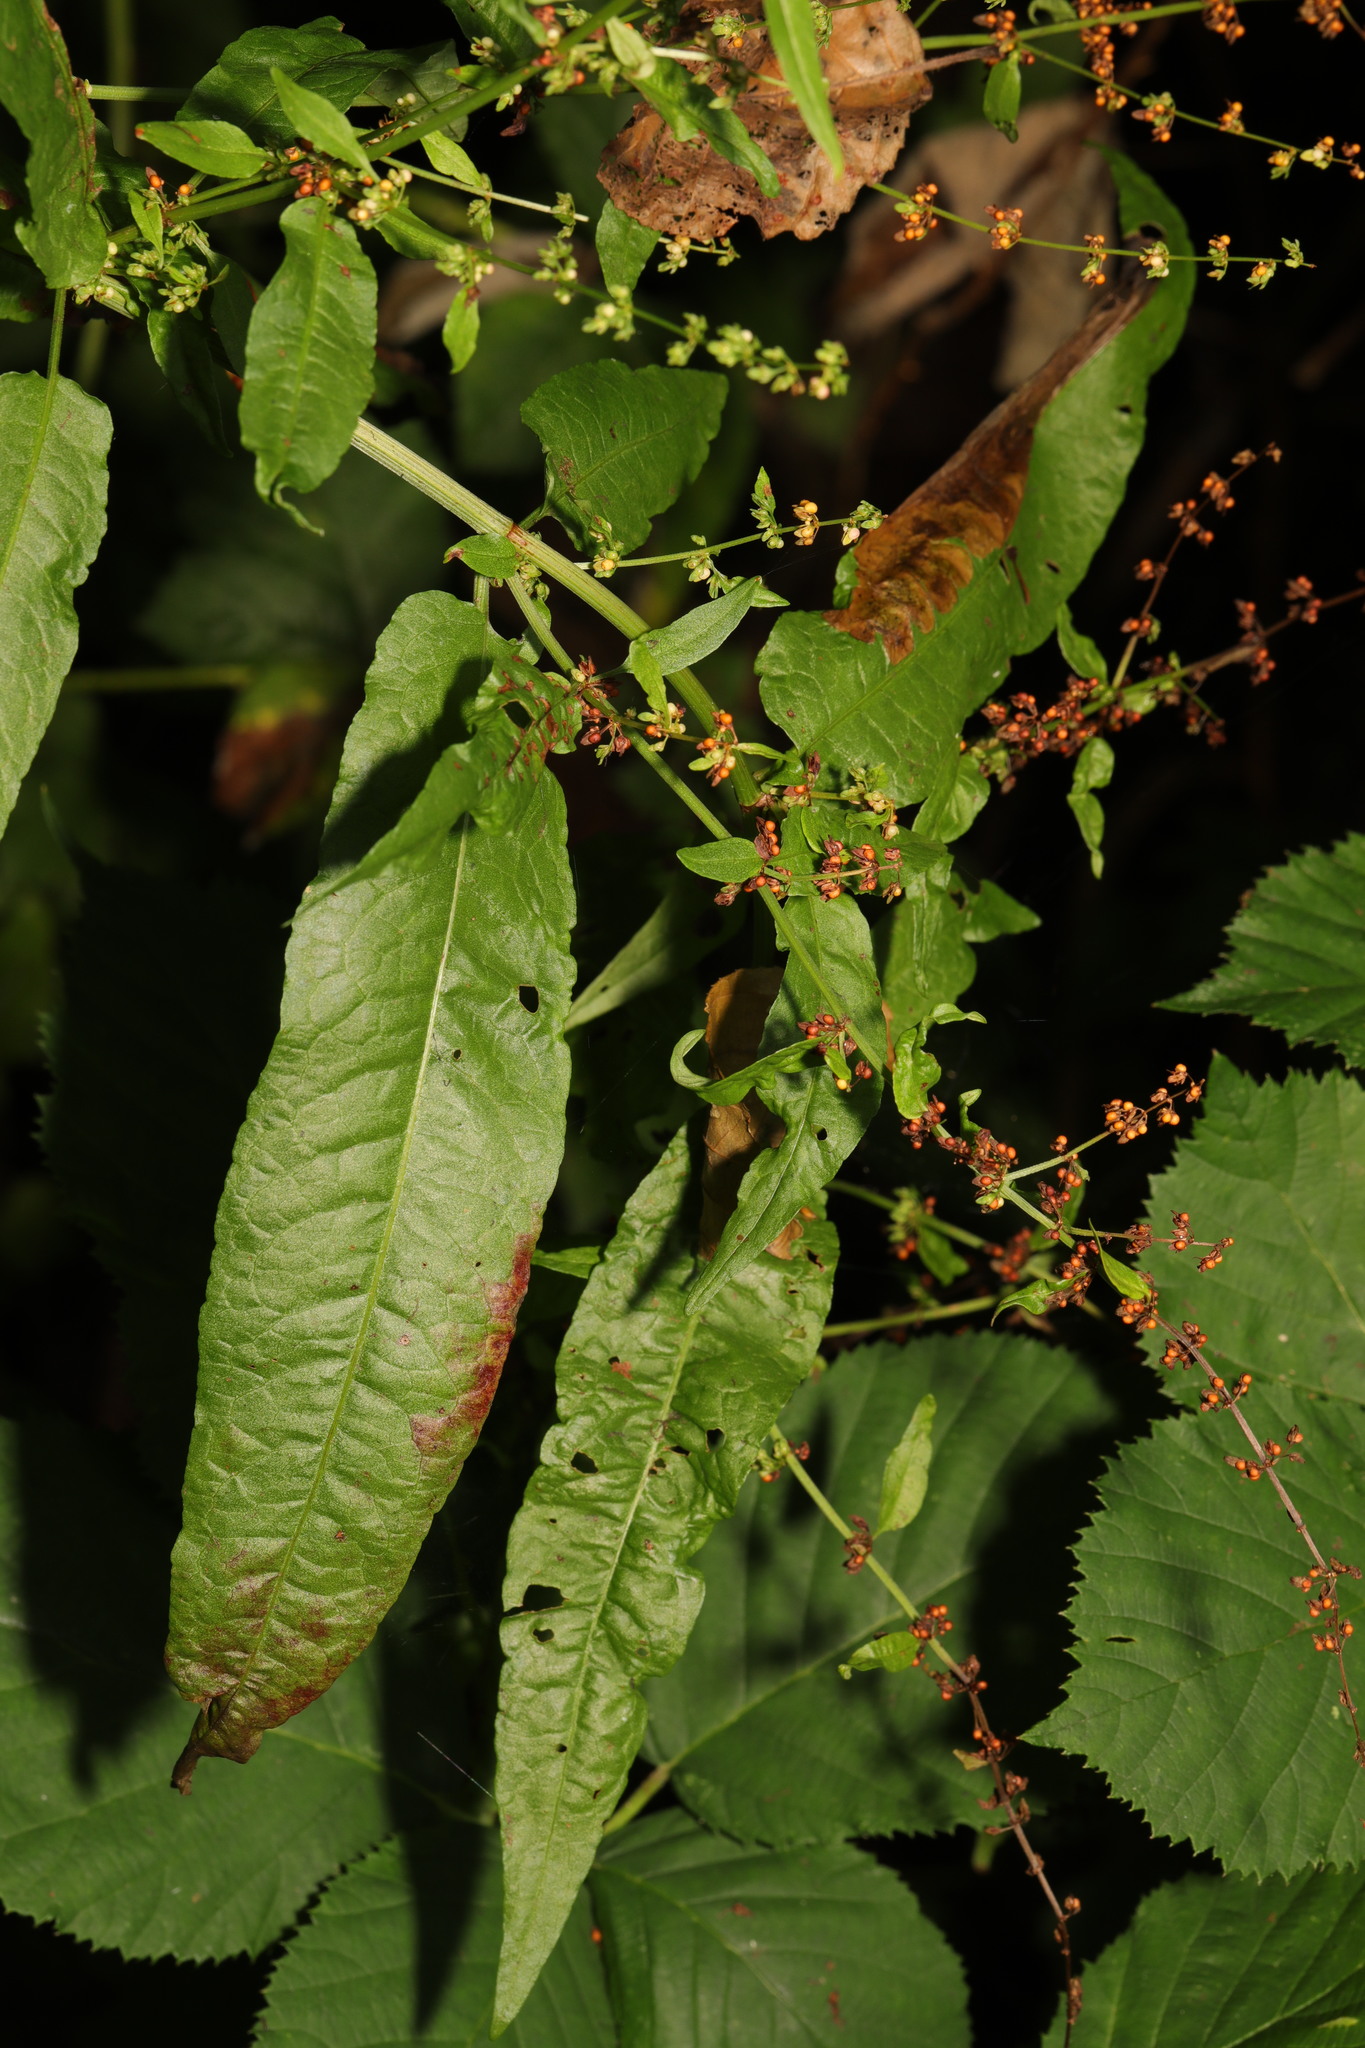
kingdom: Plantae
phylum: Tracheophyta
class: Magnoliopsida
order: Caryophyllales
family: Polygonaceae
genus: Rumex
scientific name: Rumex conglomeratus
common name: Clustered dock
